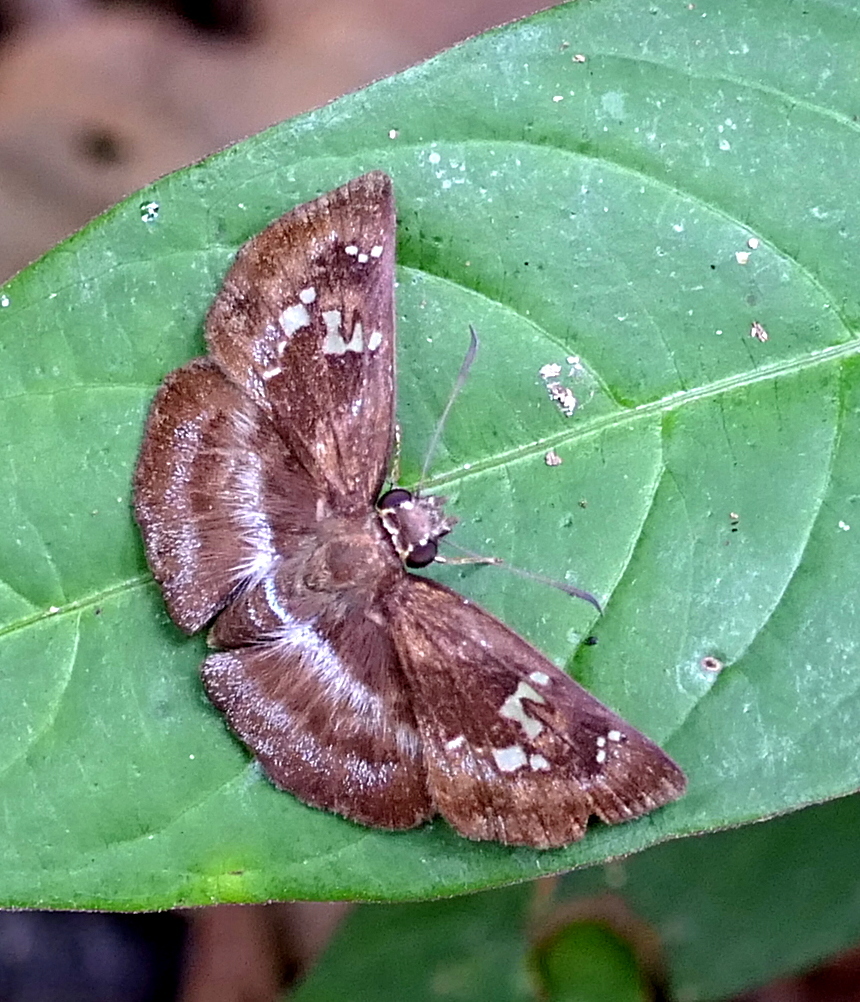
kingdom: Animalia
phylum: Arthropoda
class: Insecta
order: Lepidoptera
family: Hesperiidae
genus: Quadrus
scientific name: Quadrus cerialis
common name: Common blue-skipper
